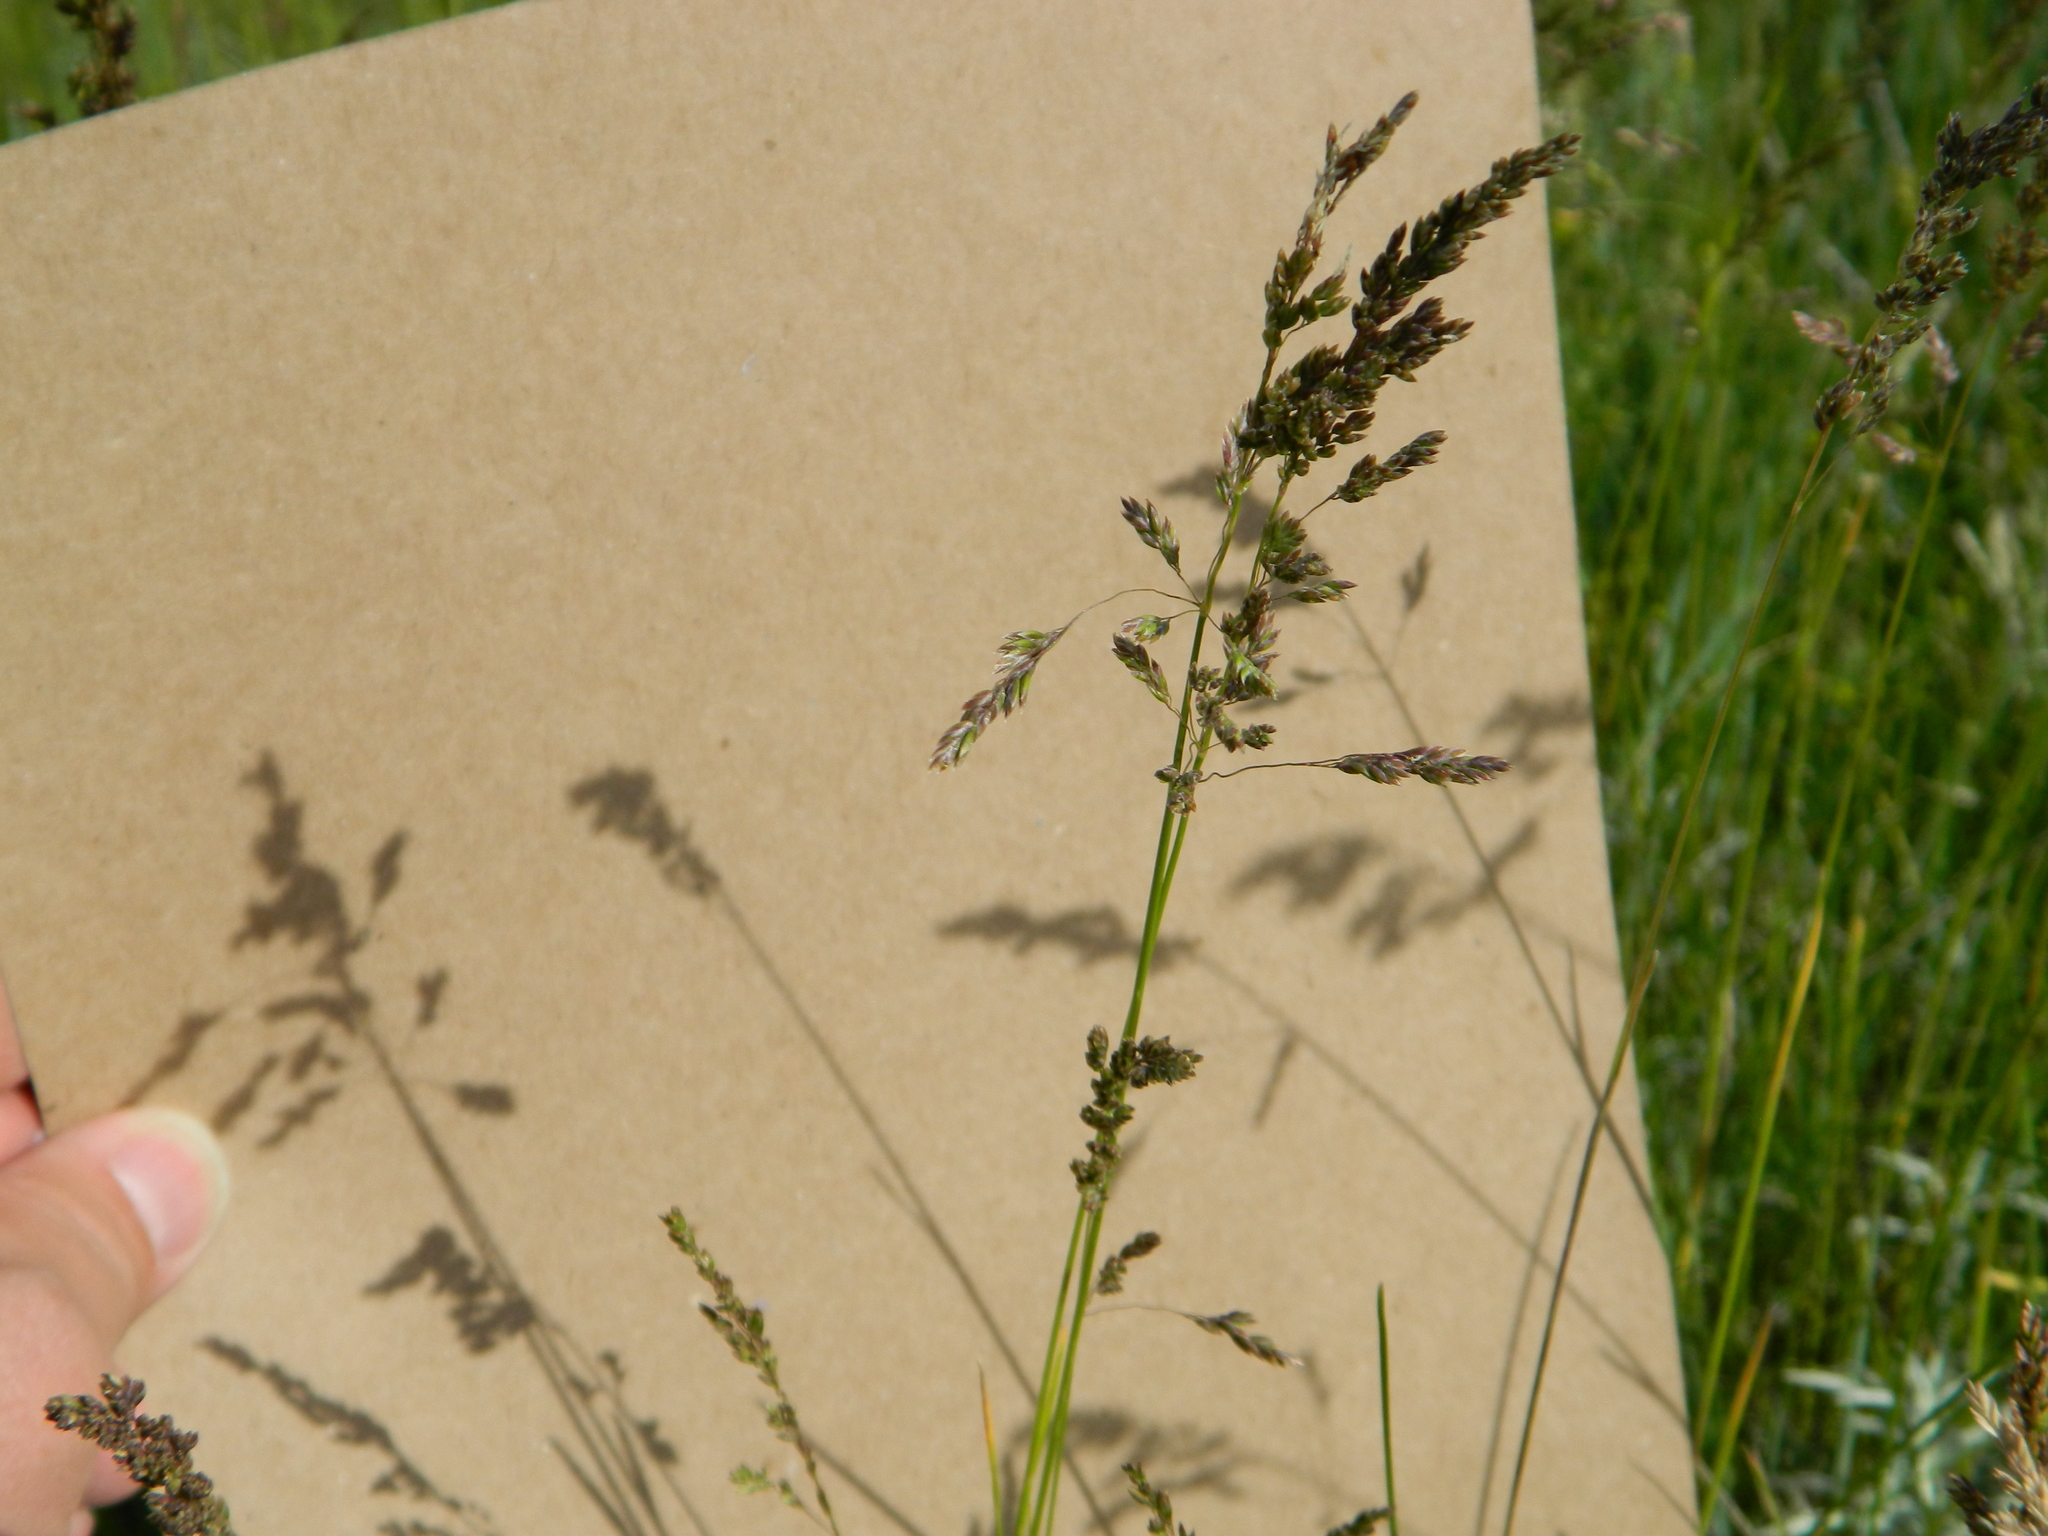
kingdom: Plantae
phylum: Tracheophyta
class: Liliopsida
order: Poales
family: Poaceae
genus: Poa
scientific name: Poa pratensis
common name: Kentucky bluegrass
